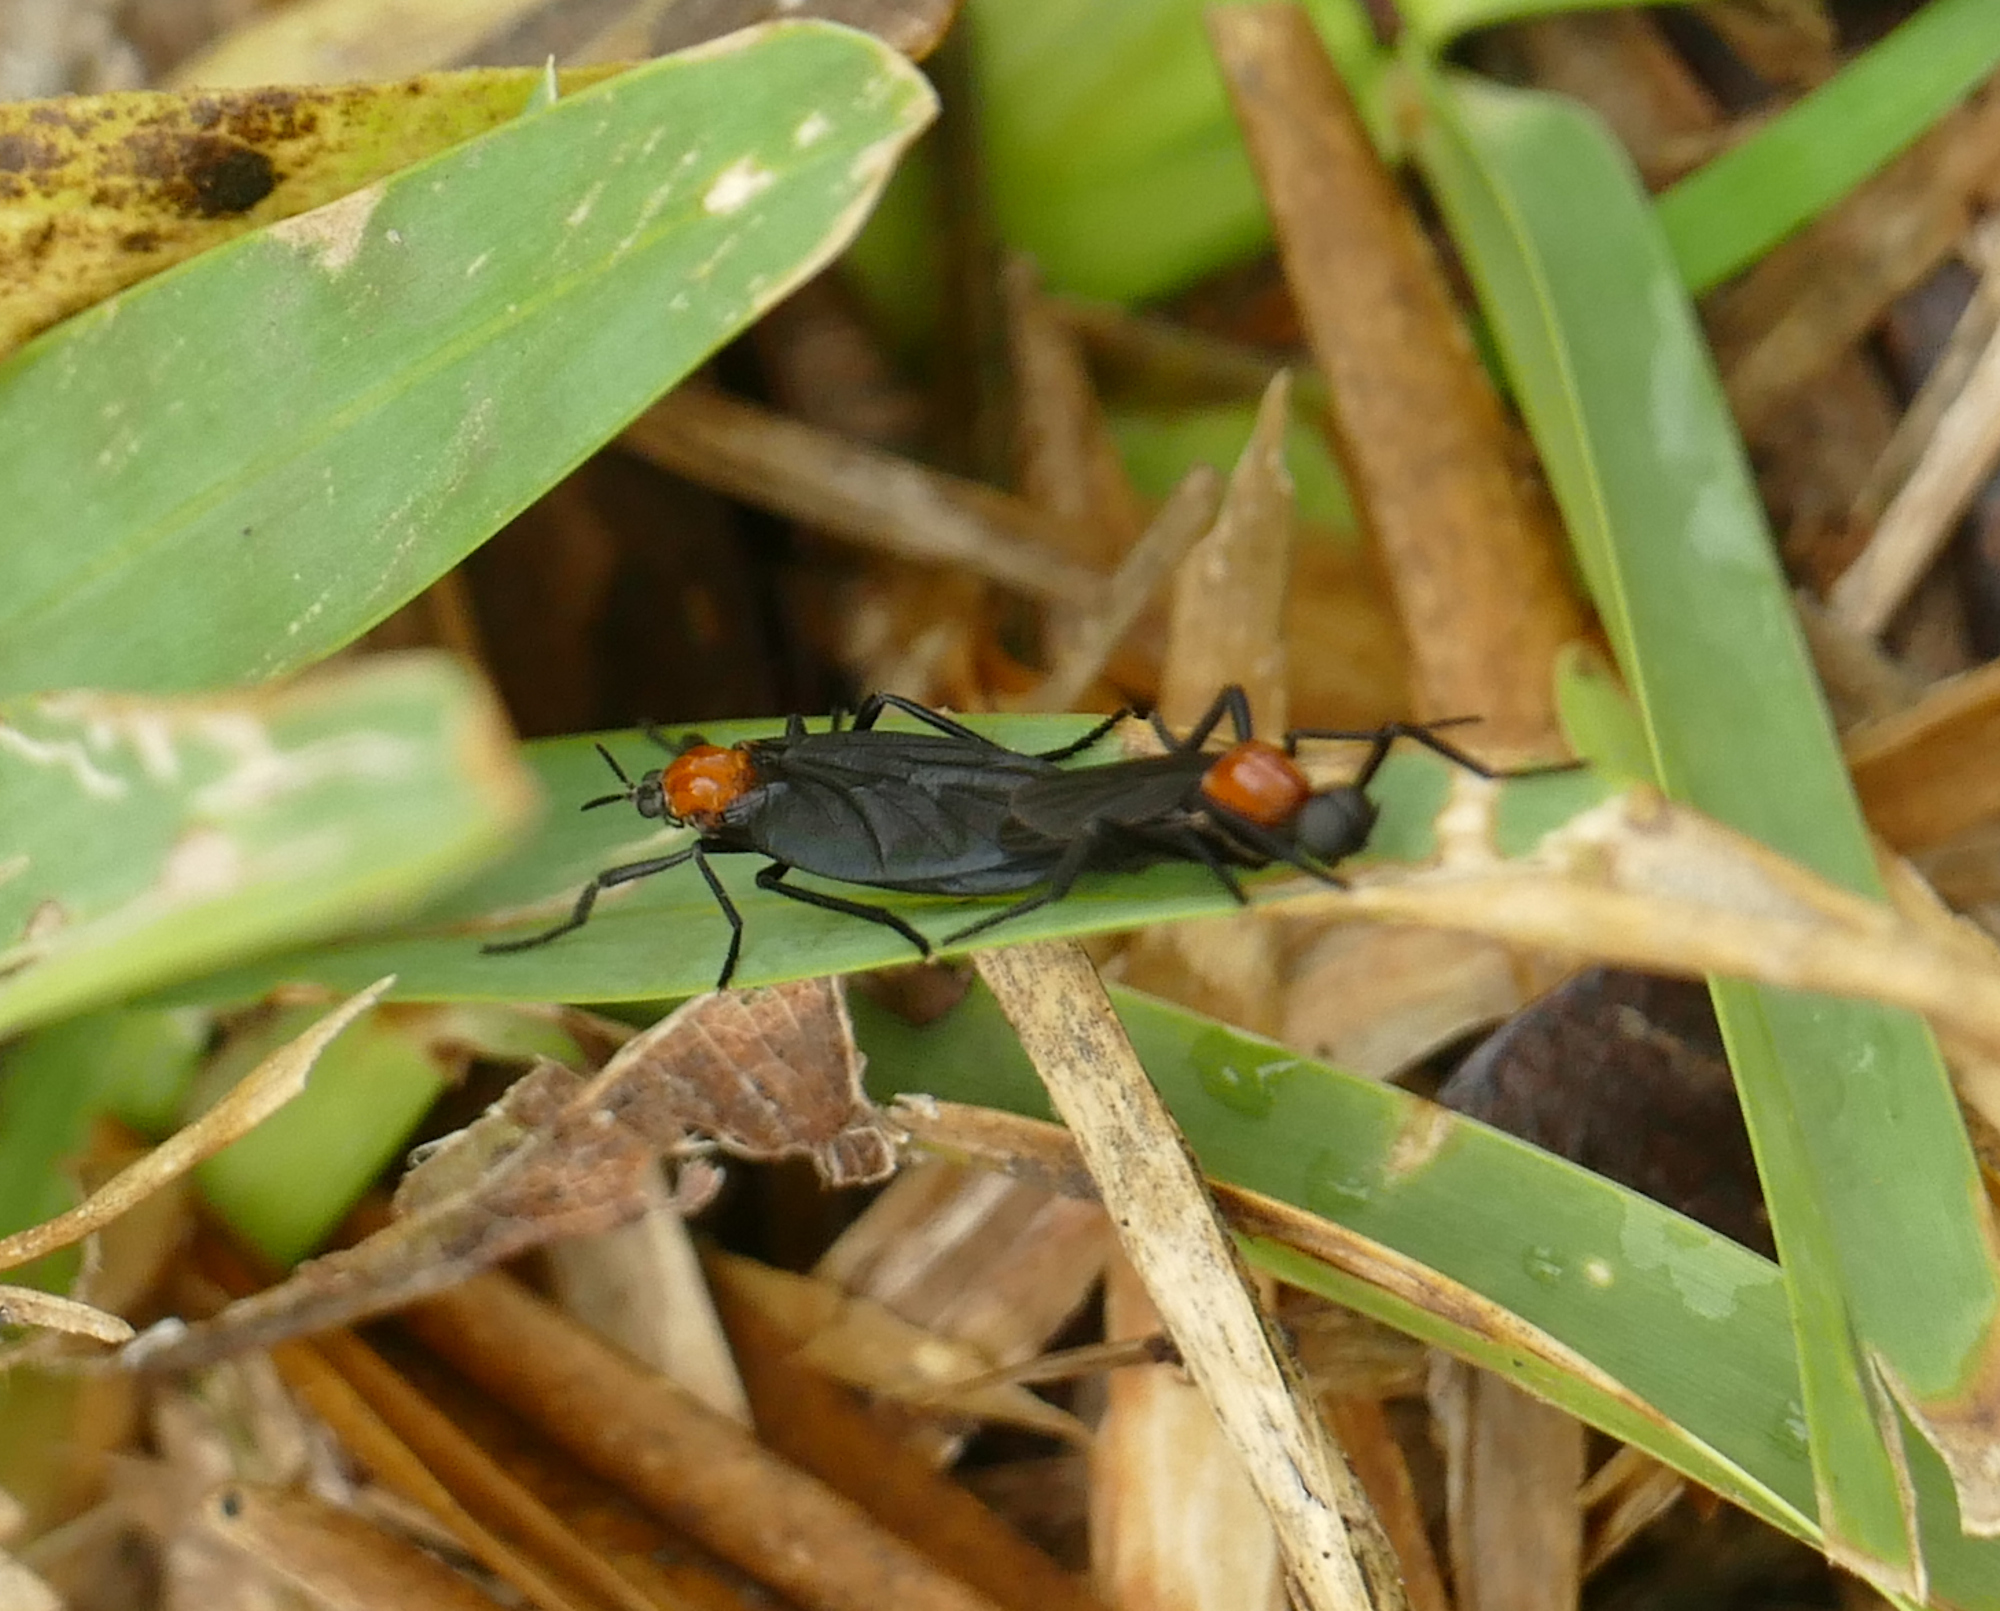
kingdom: Animalia
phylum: Arthropoda
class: Insecta
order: Diptera
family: Bibionidae
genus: Plecia
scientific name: Plecia nearctica
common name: March fly
